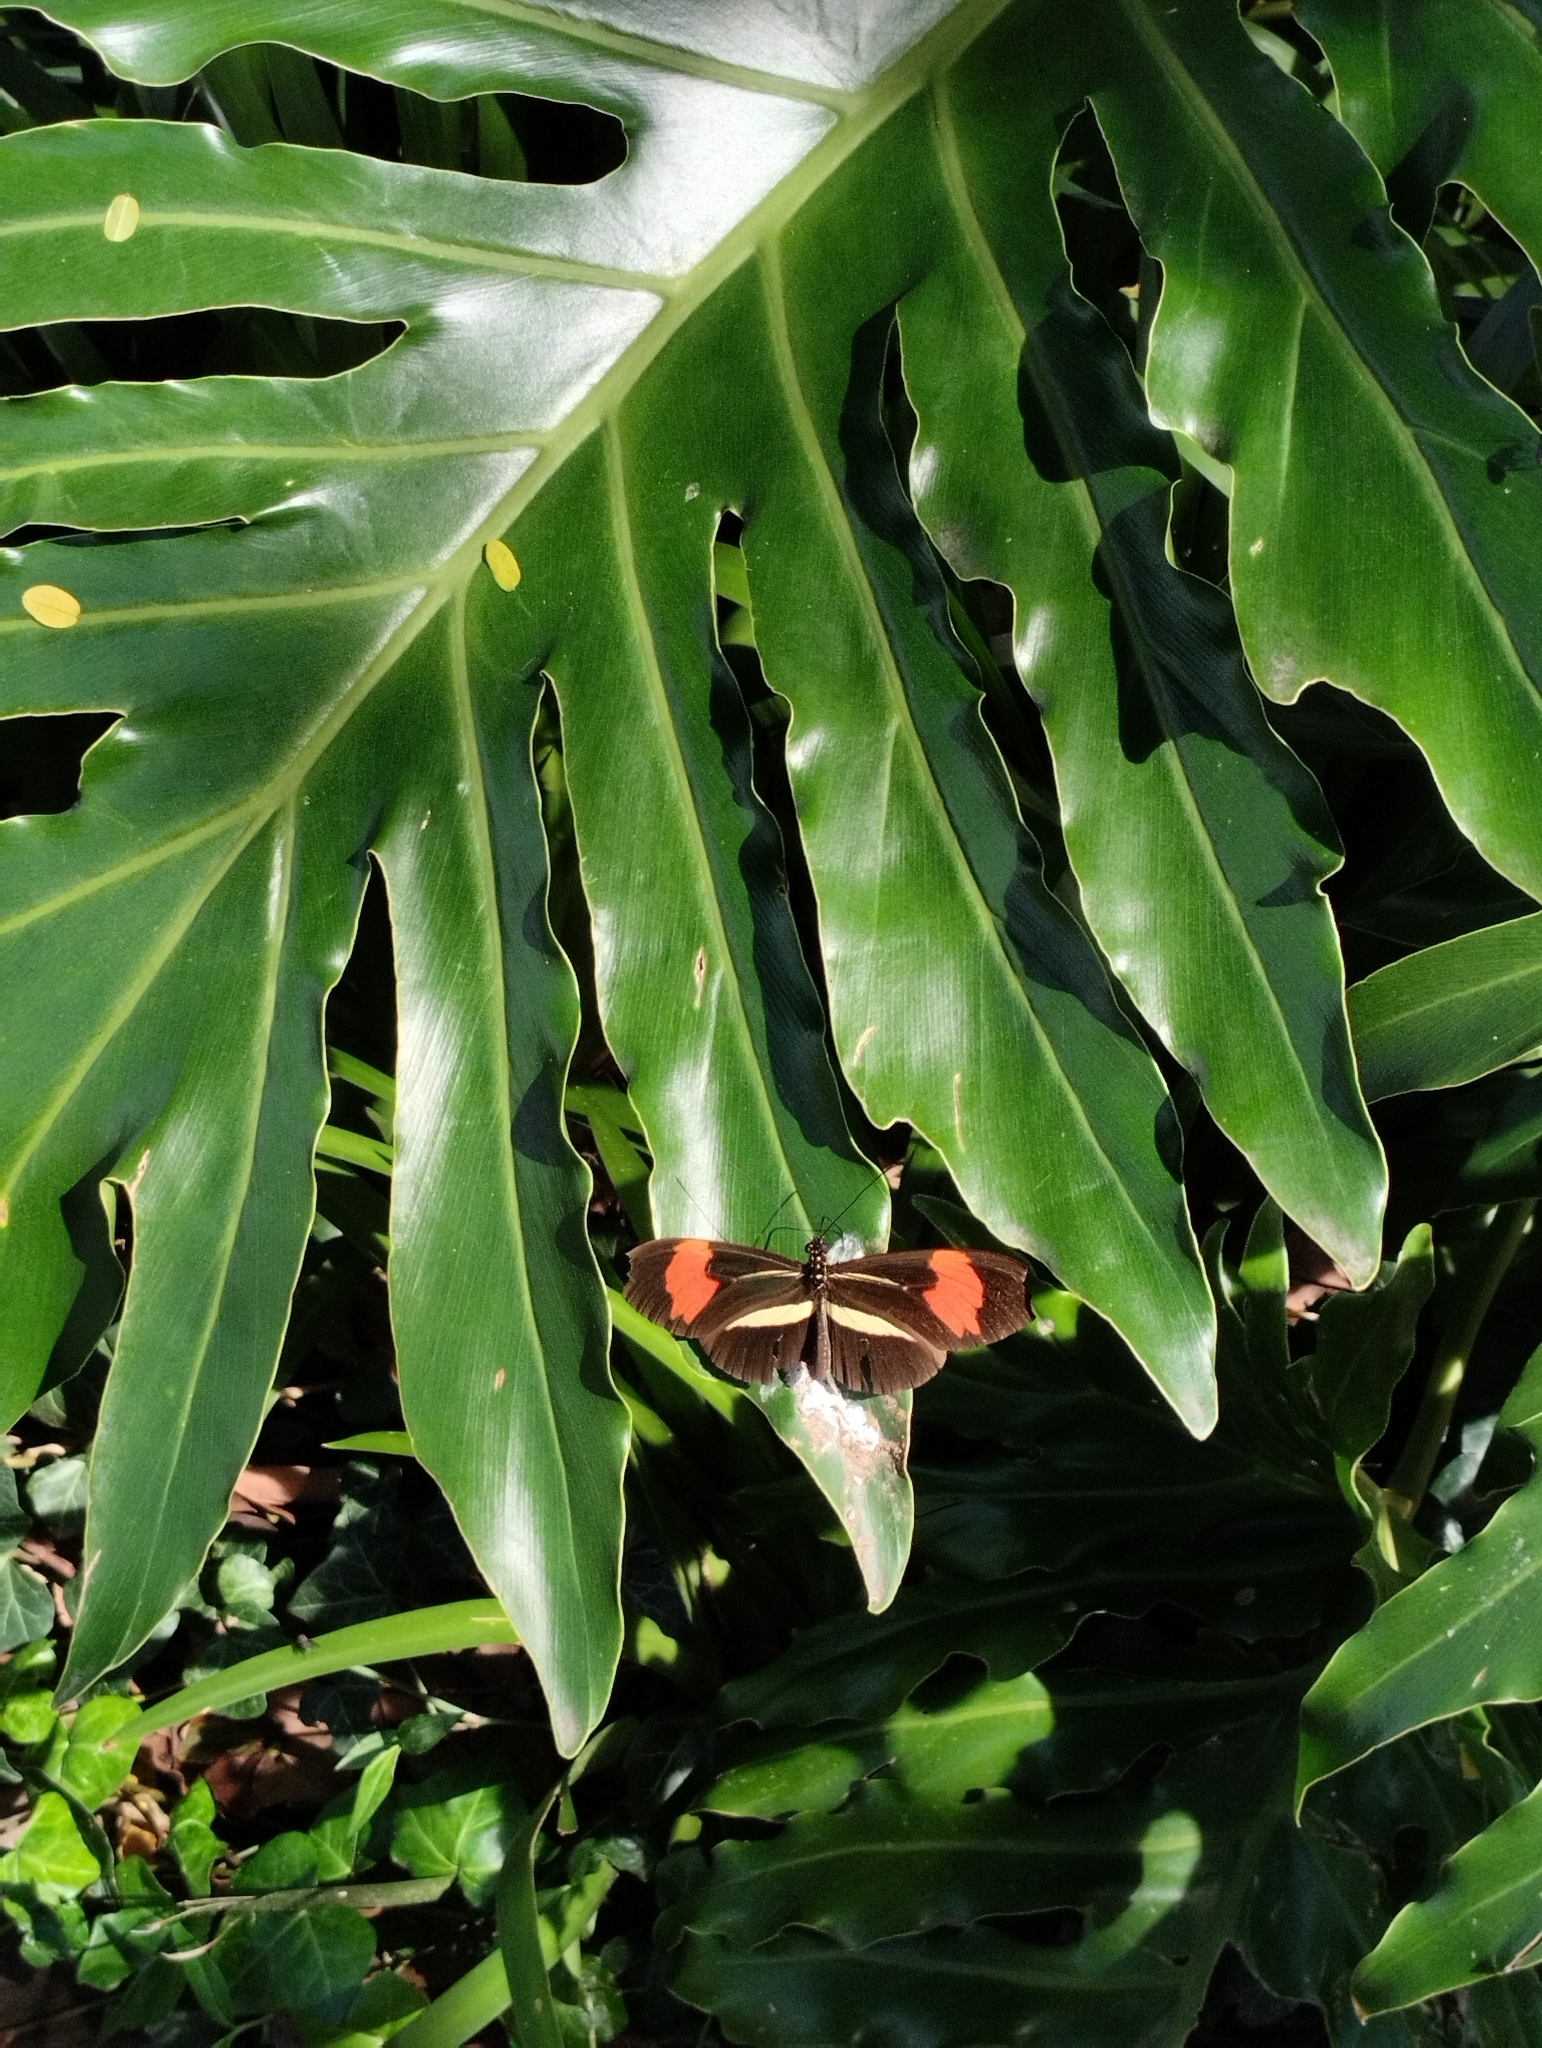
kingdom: Animalia
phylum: Arthropoda
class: Insecta
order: Lepidoptera
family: Nymphalidae
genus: Heliconius
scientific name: Heliconius erato
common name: Common patch longwing
